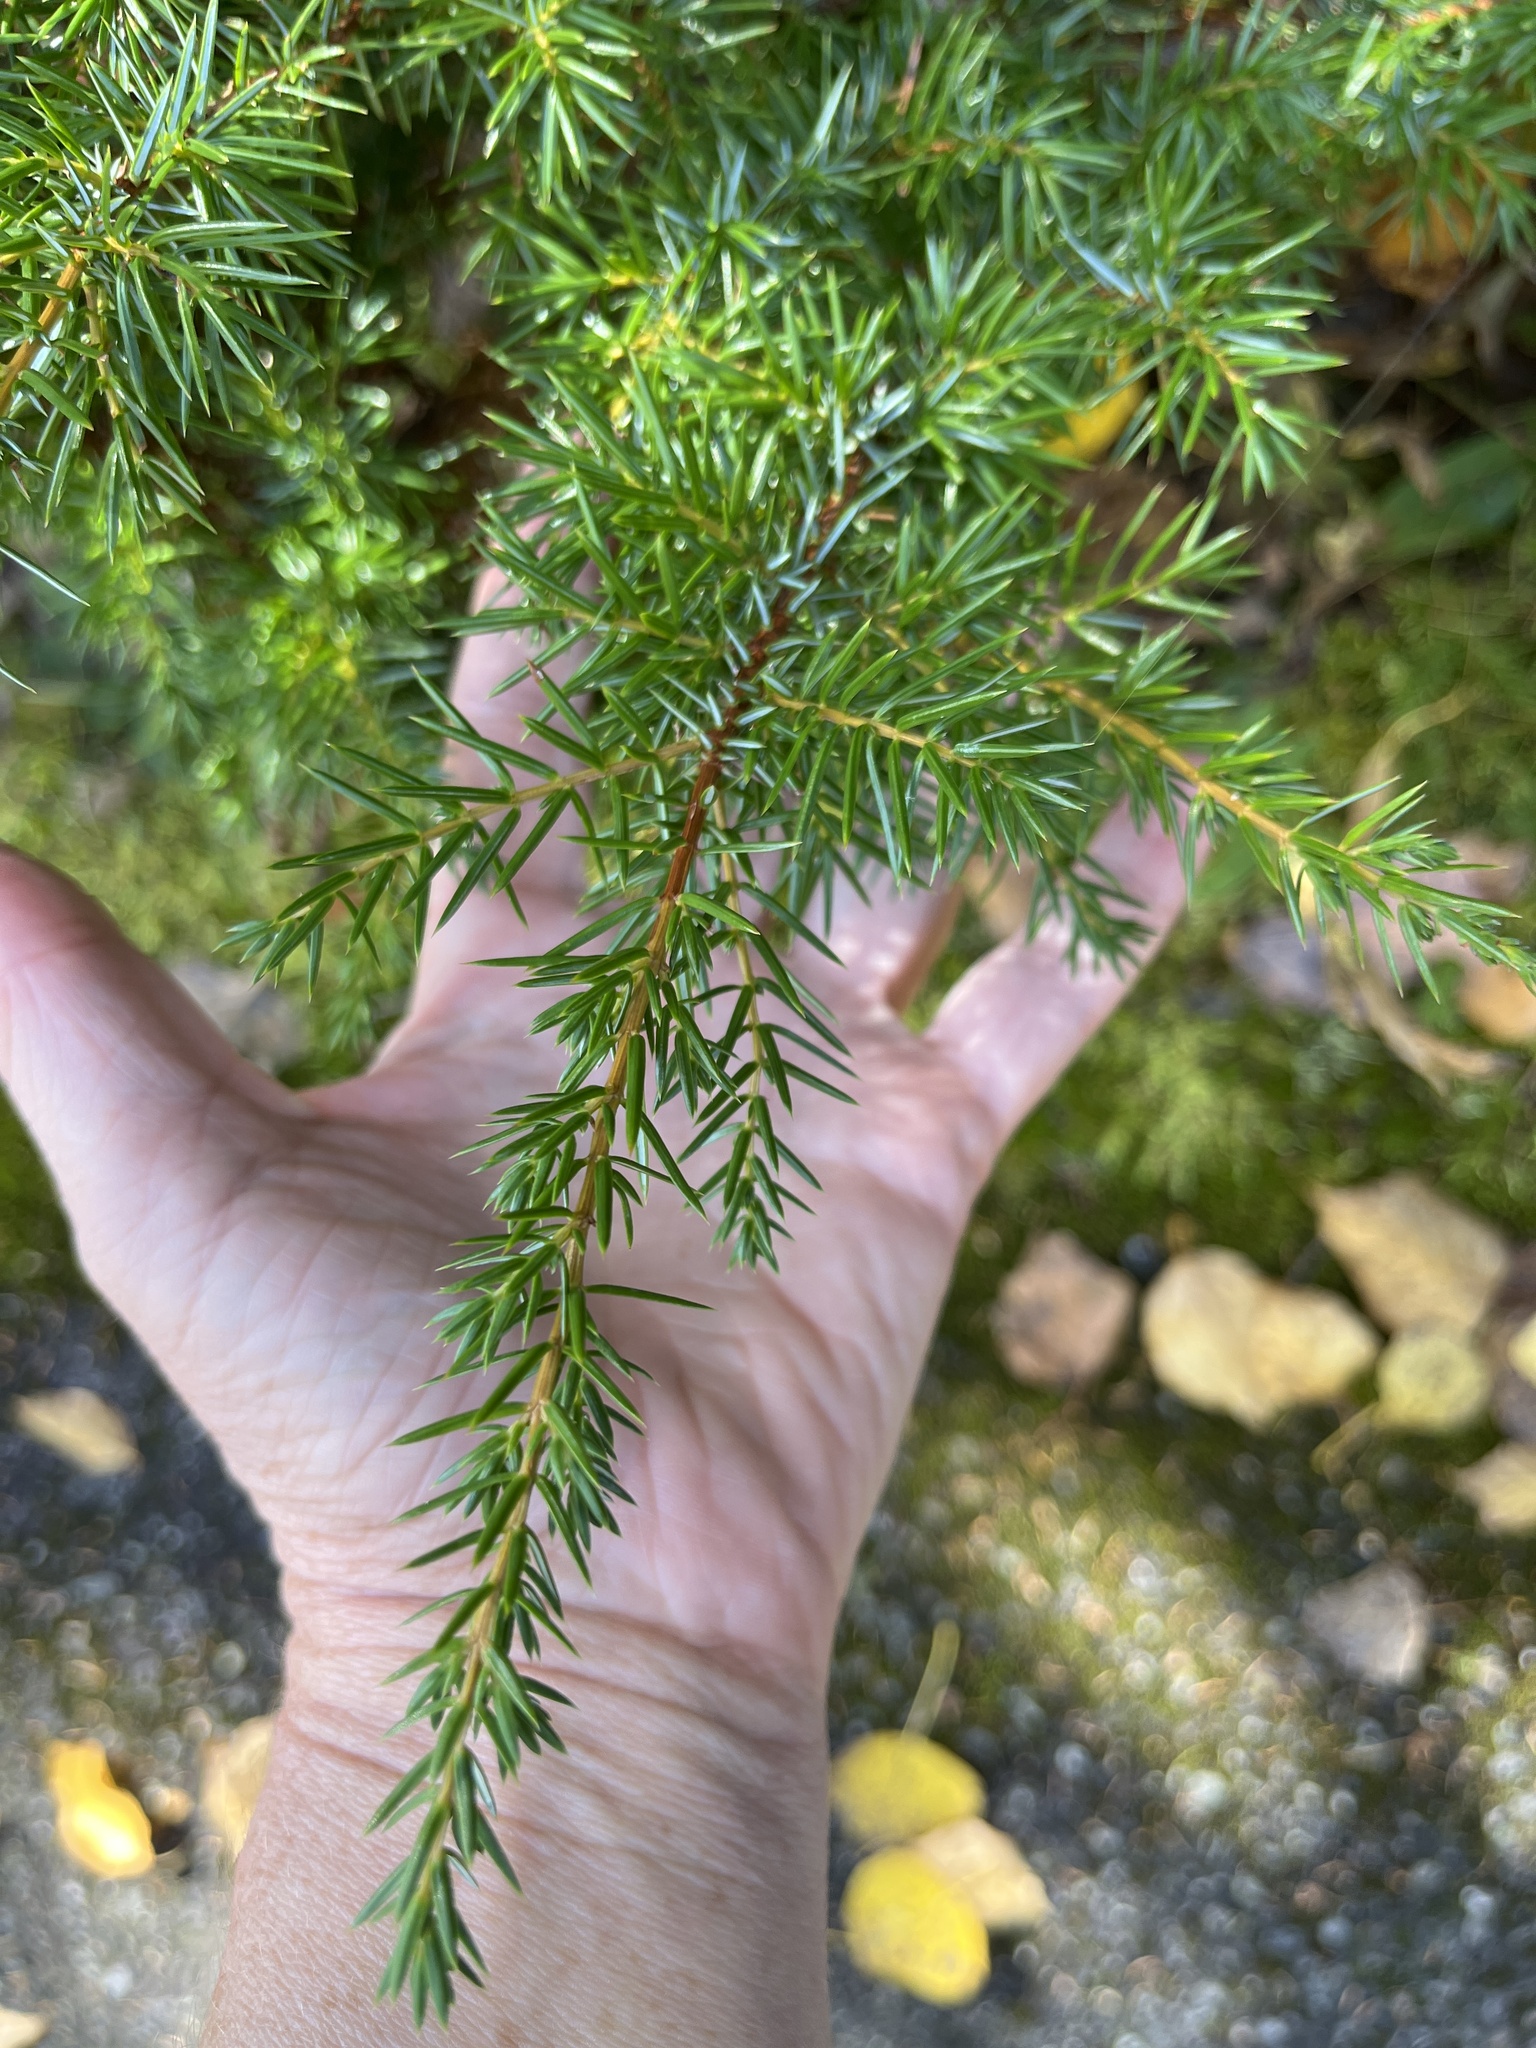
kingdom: Plantae
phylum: Tracheophyta
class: Pinopsida
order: Pinales
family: Cupressaceae
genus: Juniperus
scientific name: Juniperus communis
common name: Common juniper
